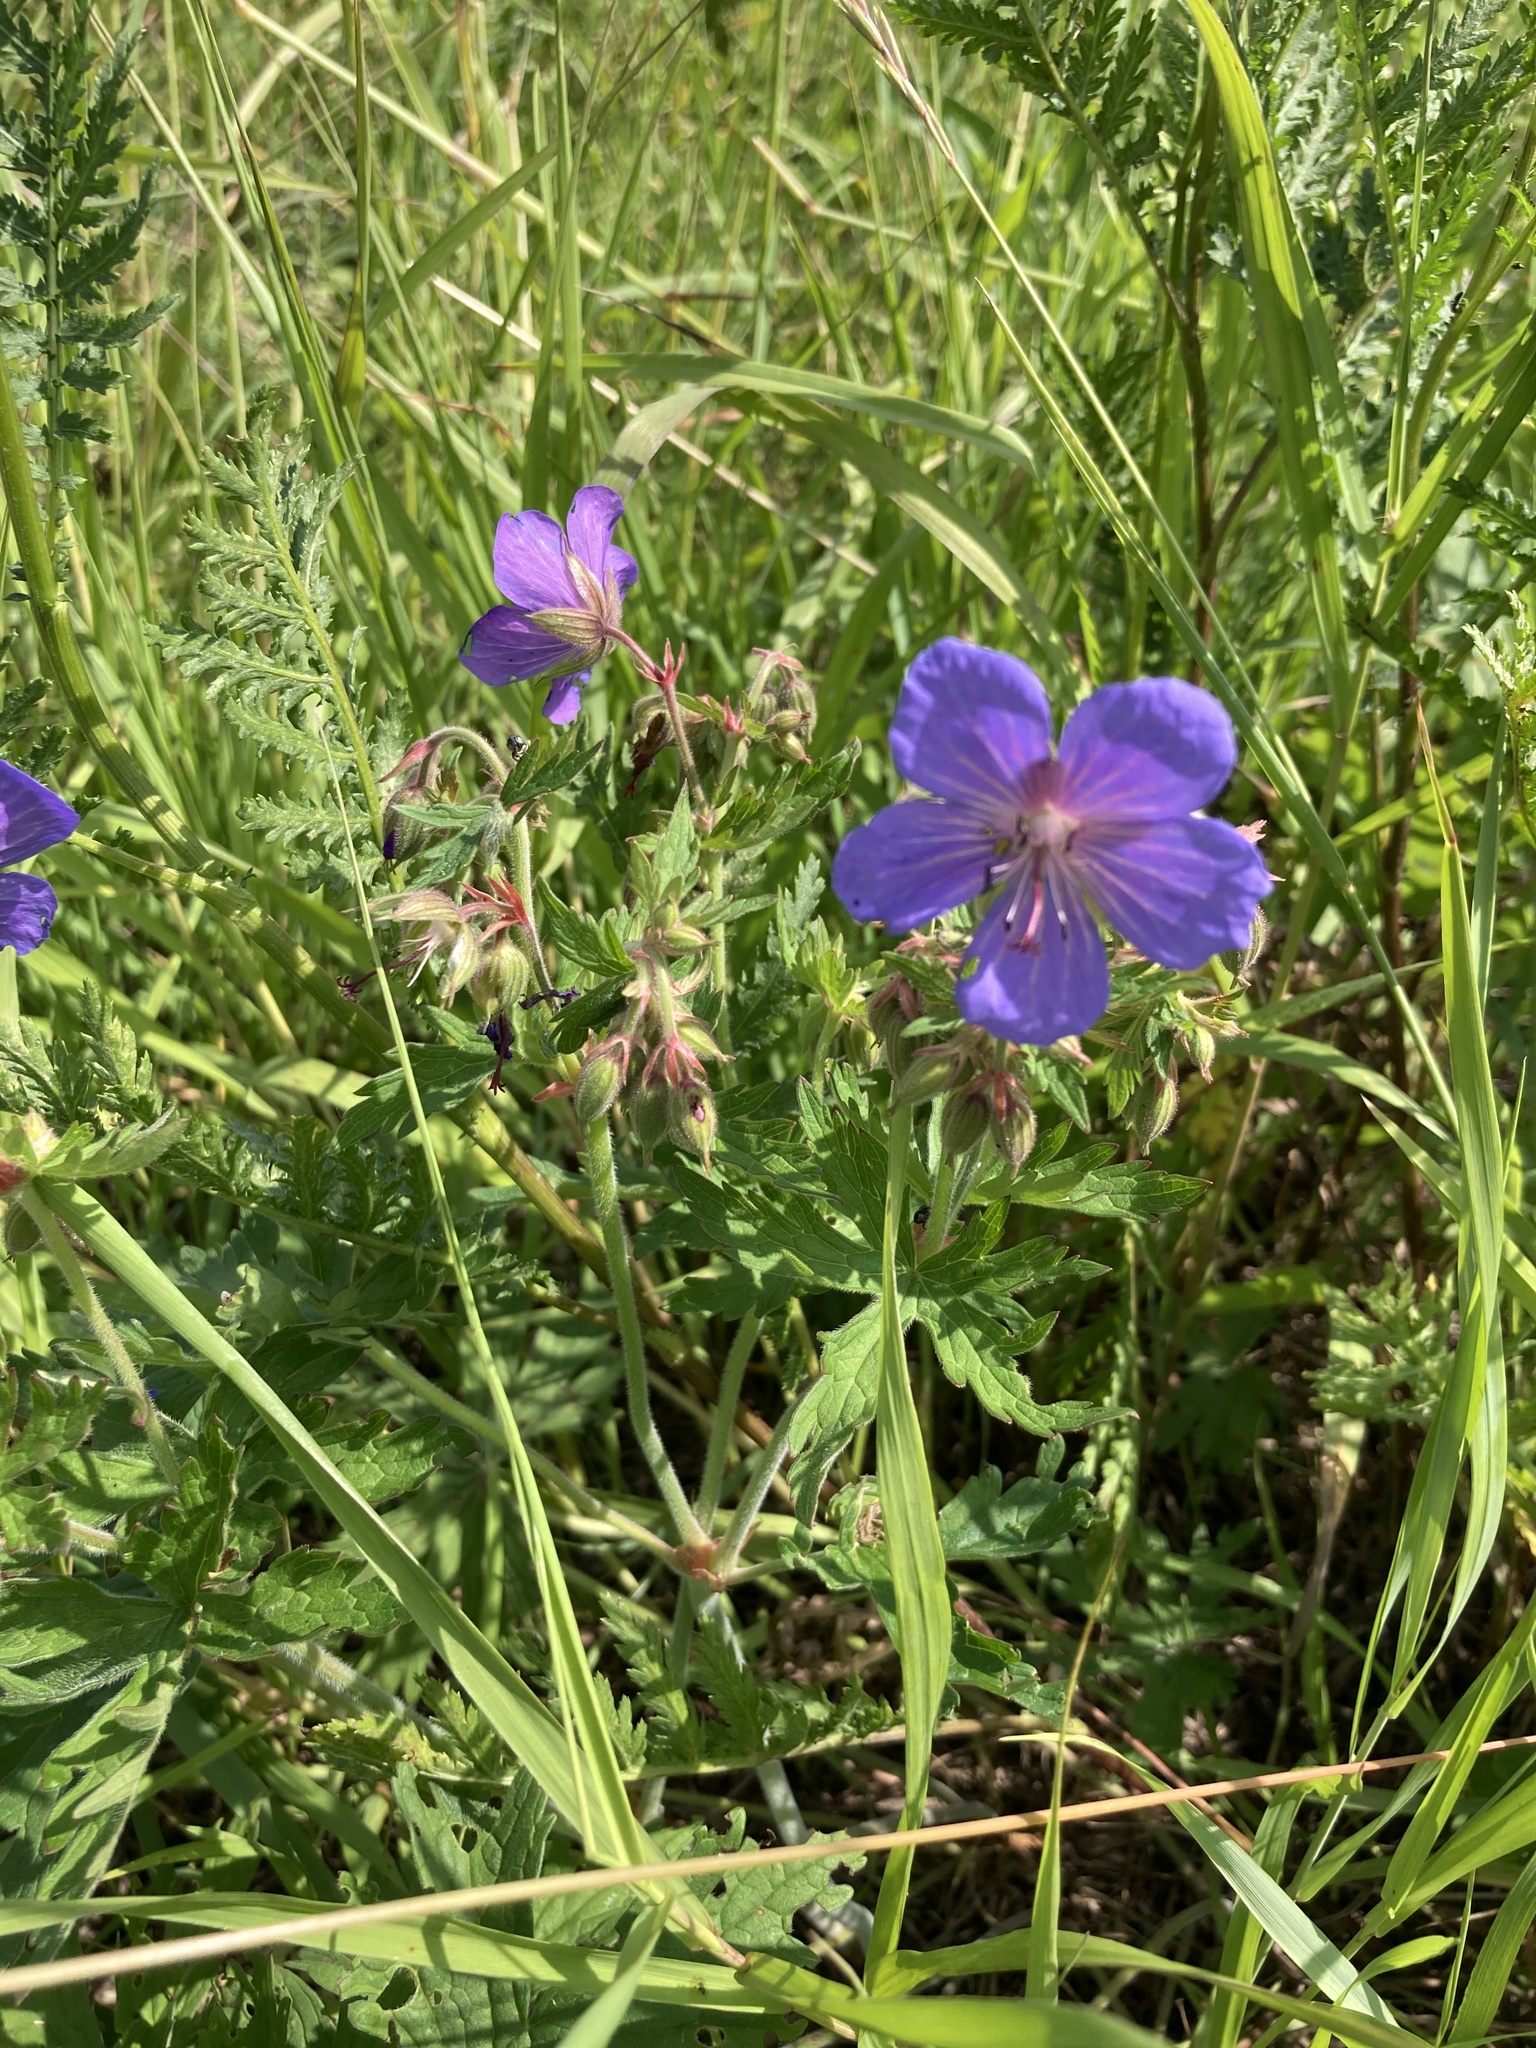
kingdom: Plantae
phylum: Tracheophyta
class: Magnoliopsida
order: Geraniales
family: Geraniaceae
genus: Geranium
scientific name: Geranium pratense
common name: Meadow crane's-bill
